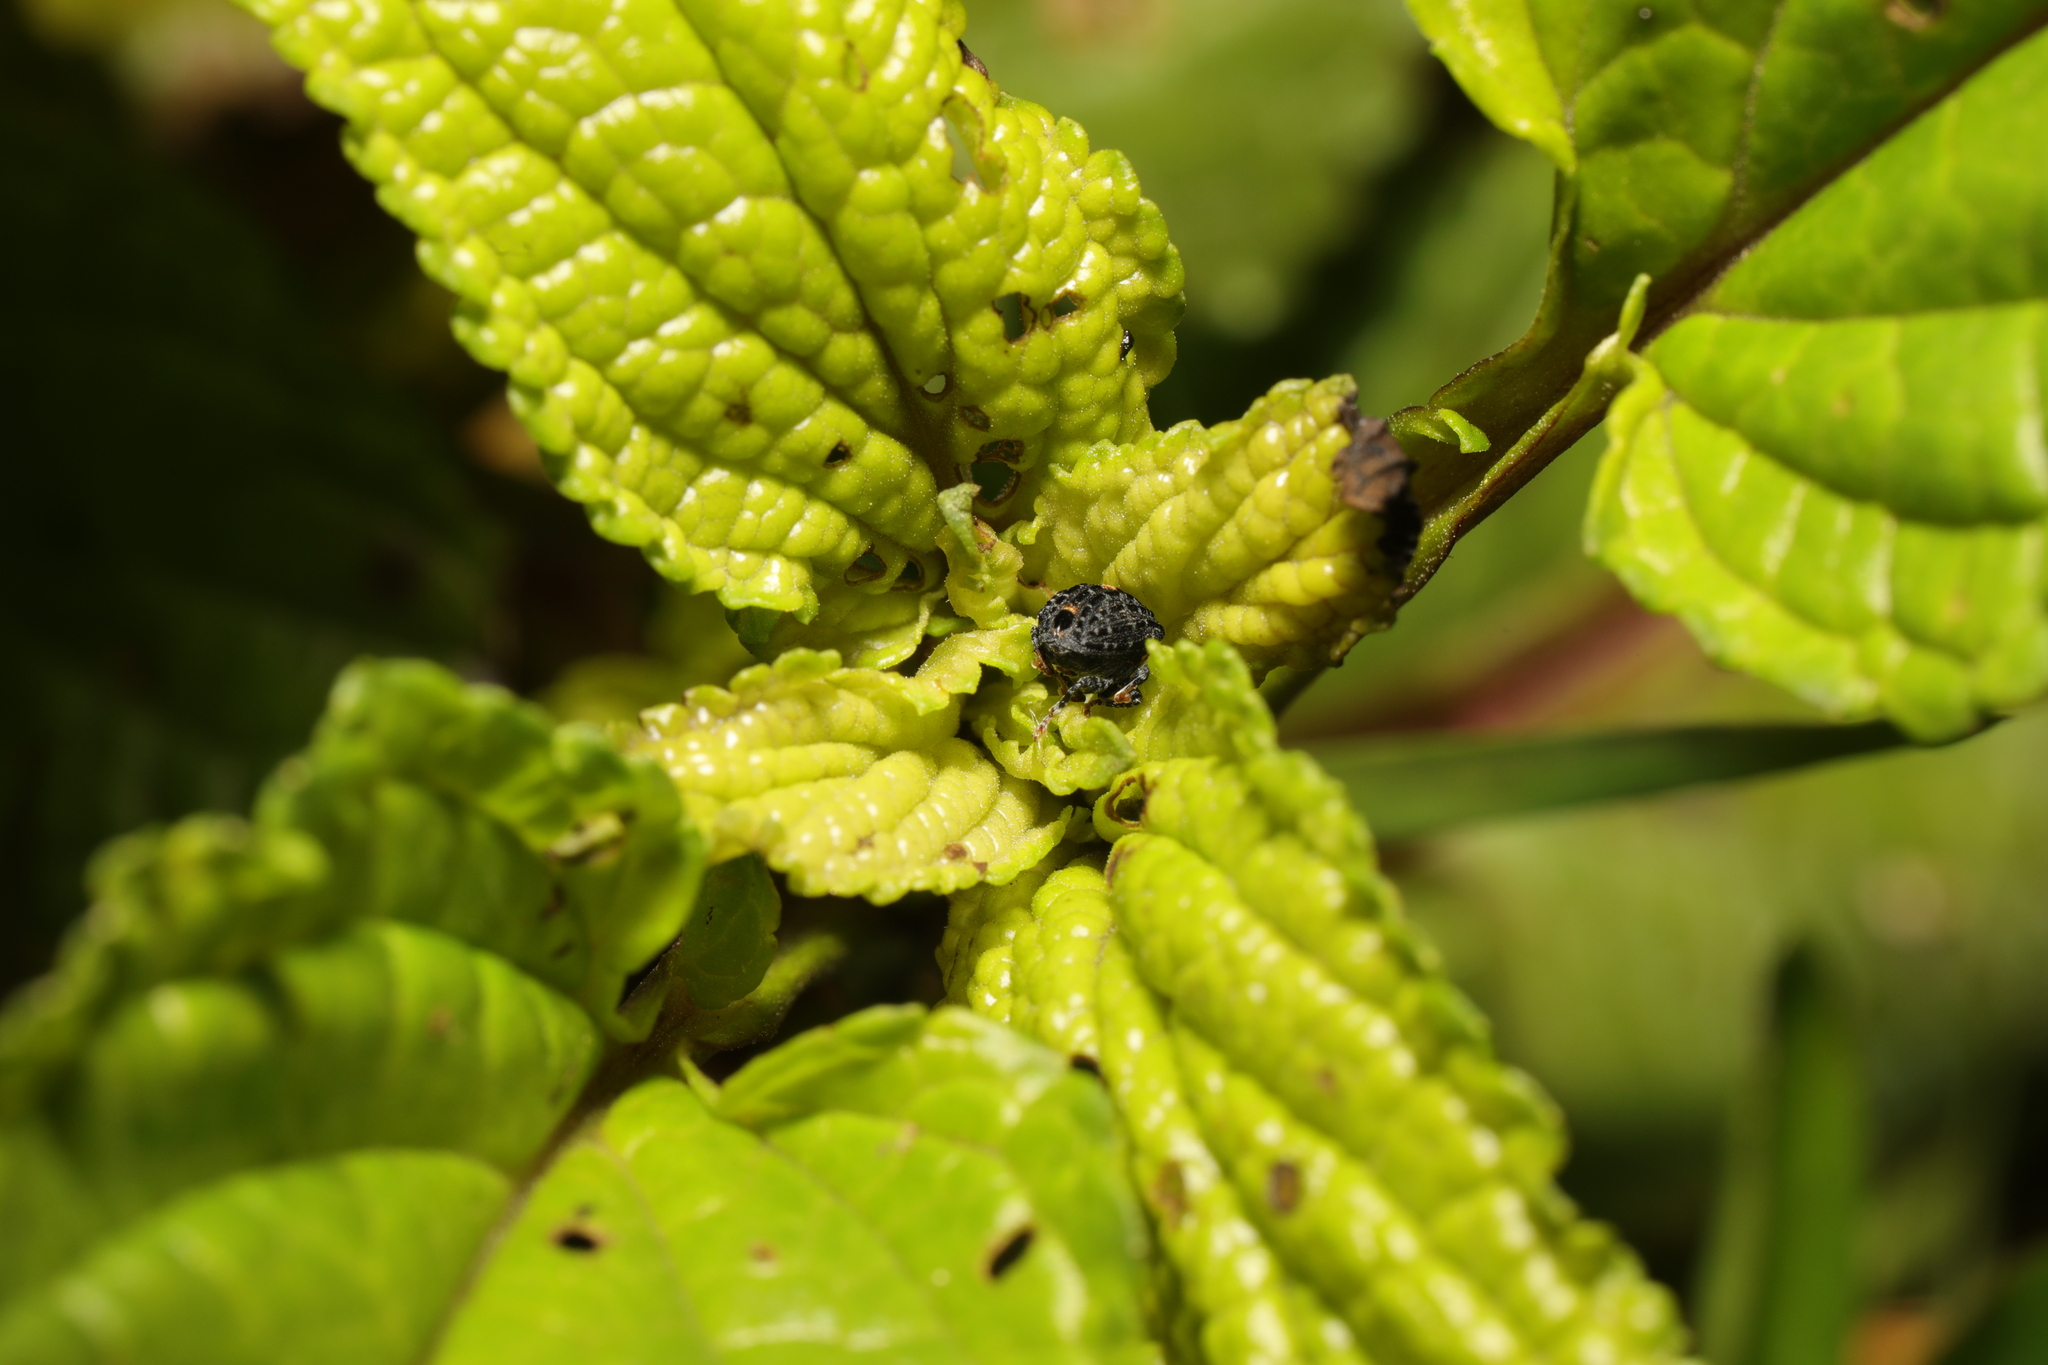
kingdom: Animalia
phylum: Arthropoda
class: Insecta
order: Coleoptera
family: Curculionidae
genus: Cionus
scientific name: Cionus tuberculosus
